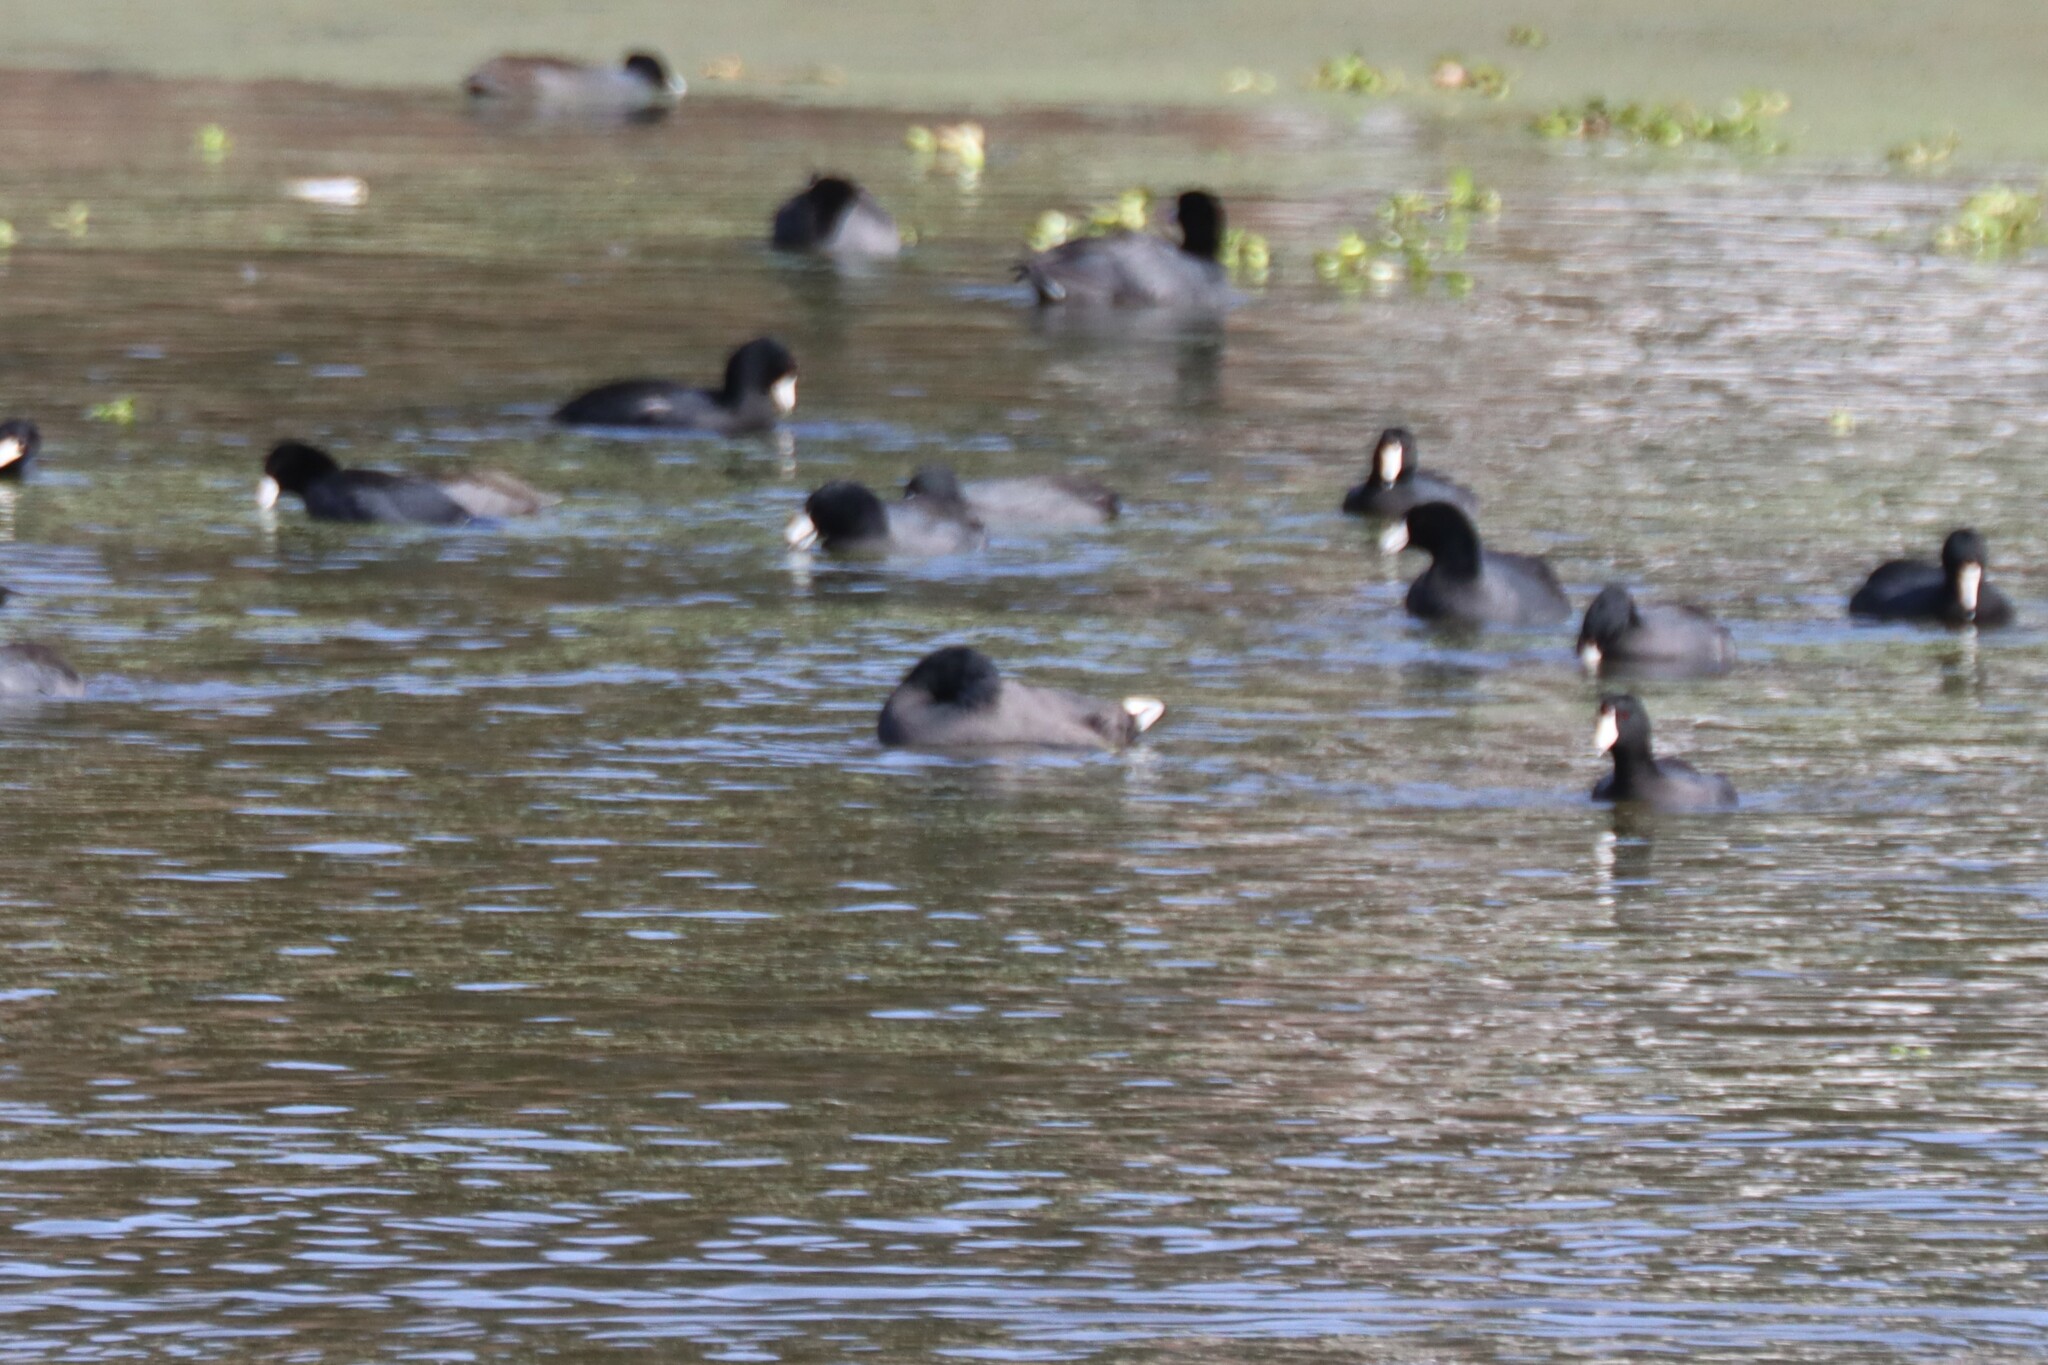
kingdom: Animalia
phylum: Chordata
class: Aves
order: Gruiformes
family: Rallidae
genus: Fulica
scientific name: Fulica americana
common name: American coot
